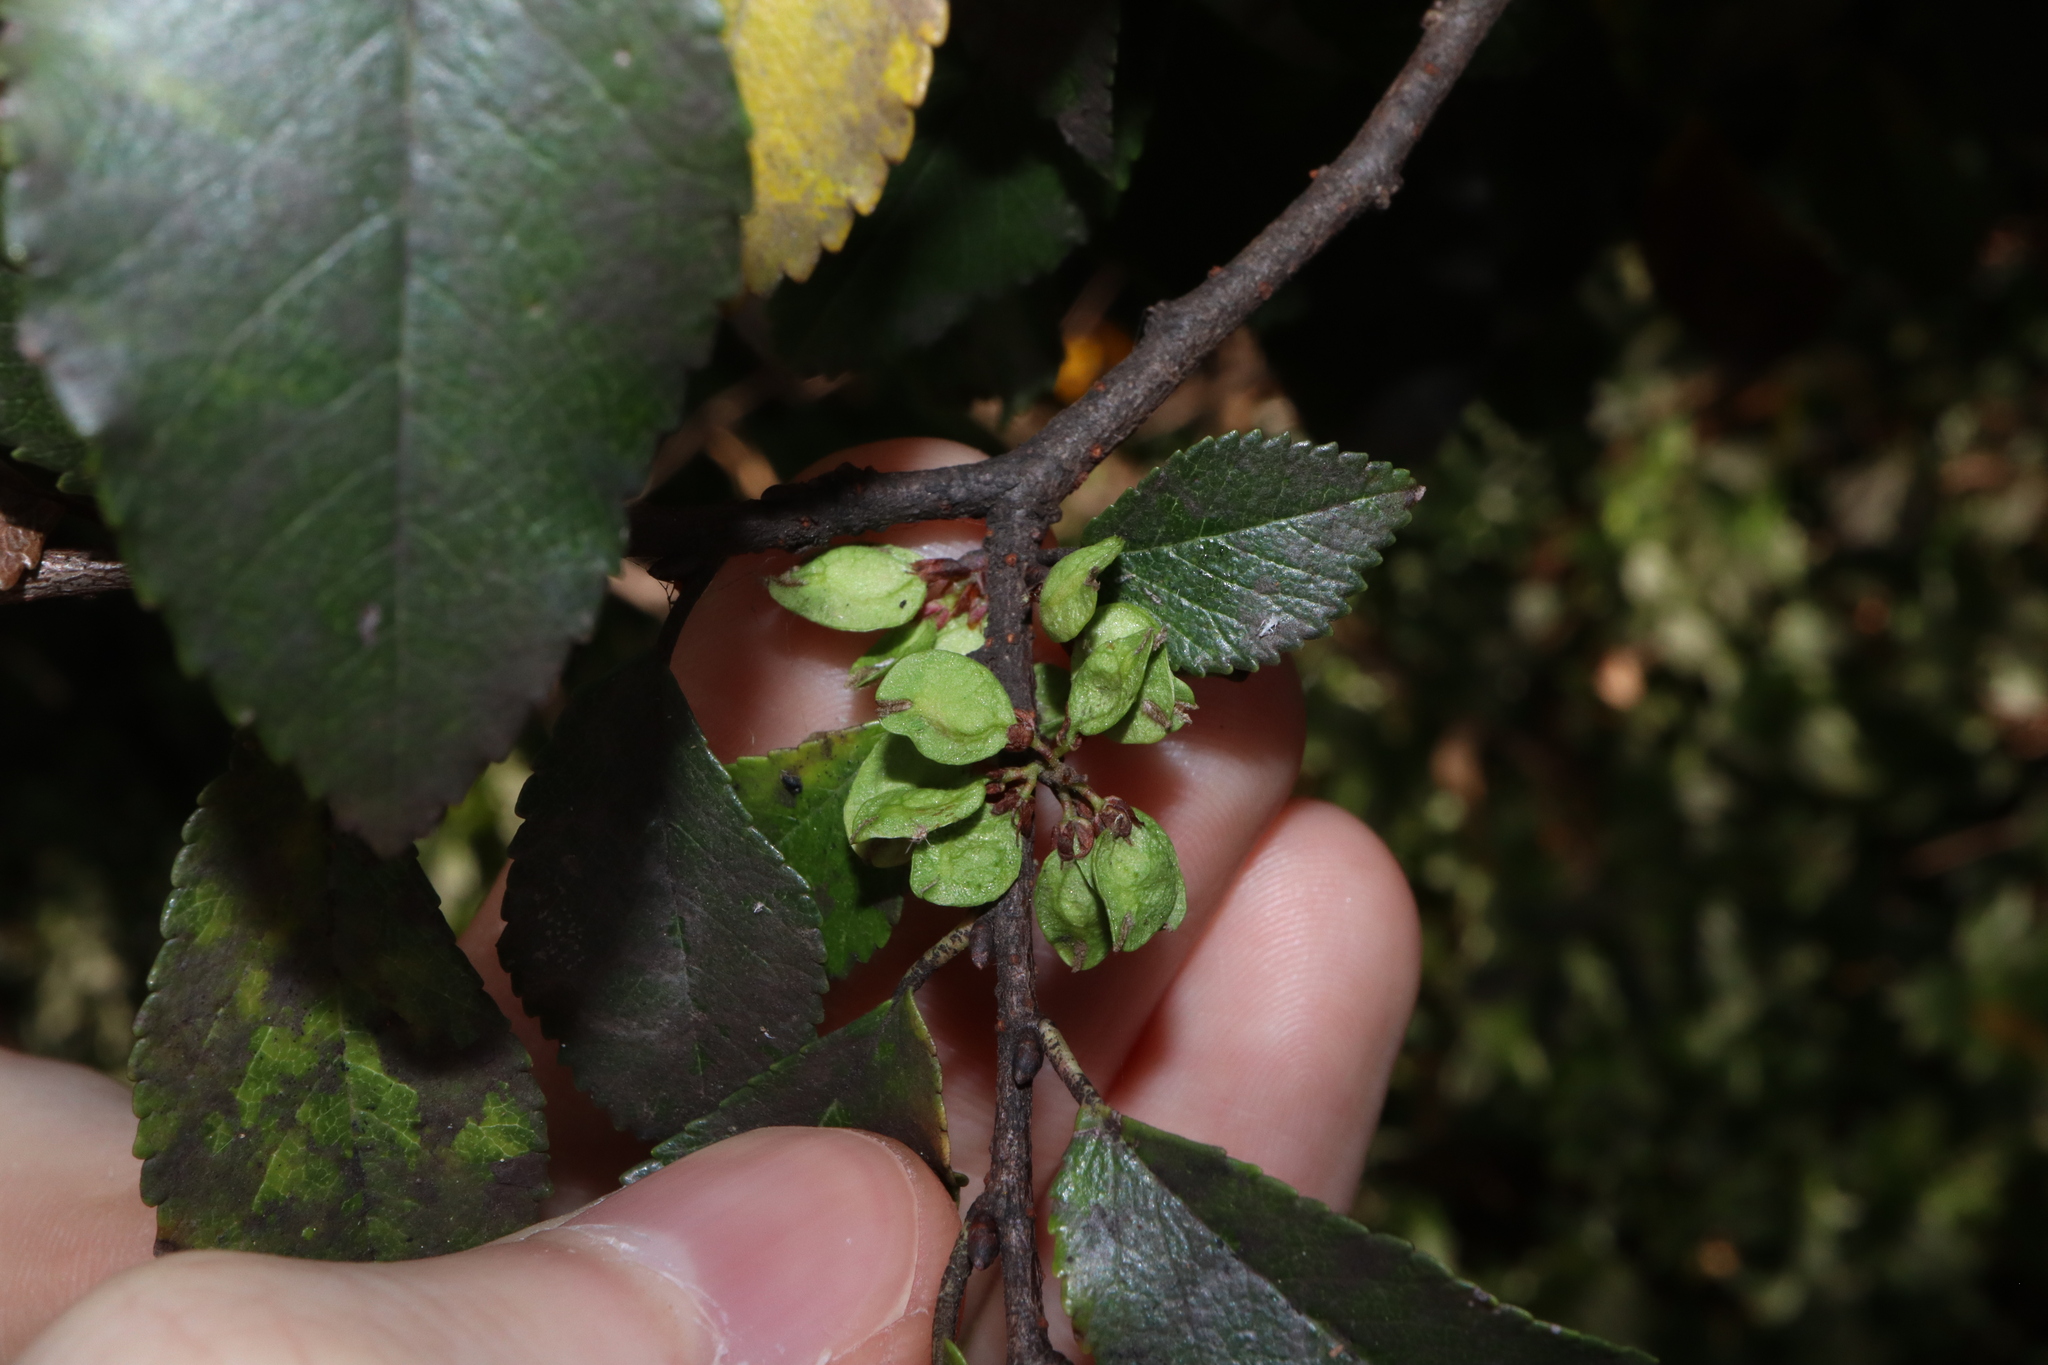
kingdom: Plantae
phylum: Tracheophyta
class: Magnoliopsida
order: Rosales
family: Ulmaceae
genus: Ulmus
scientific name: Ulmus parvifolia
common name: Chinese elm
